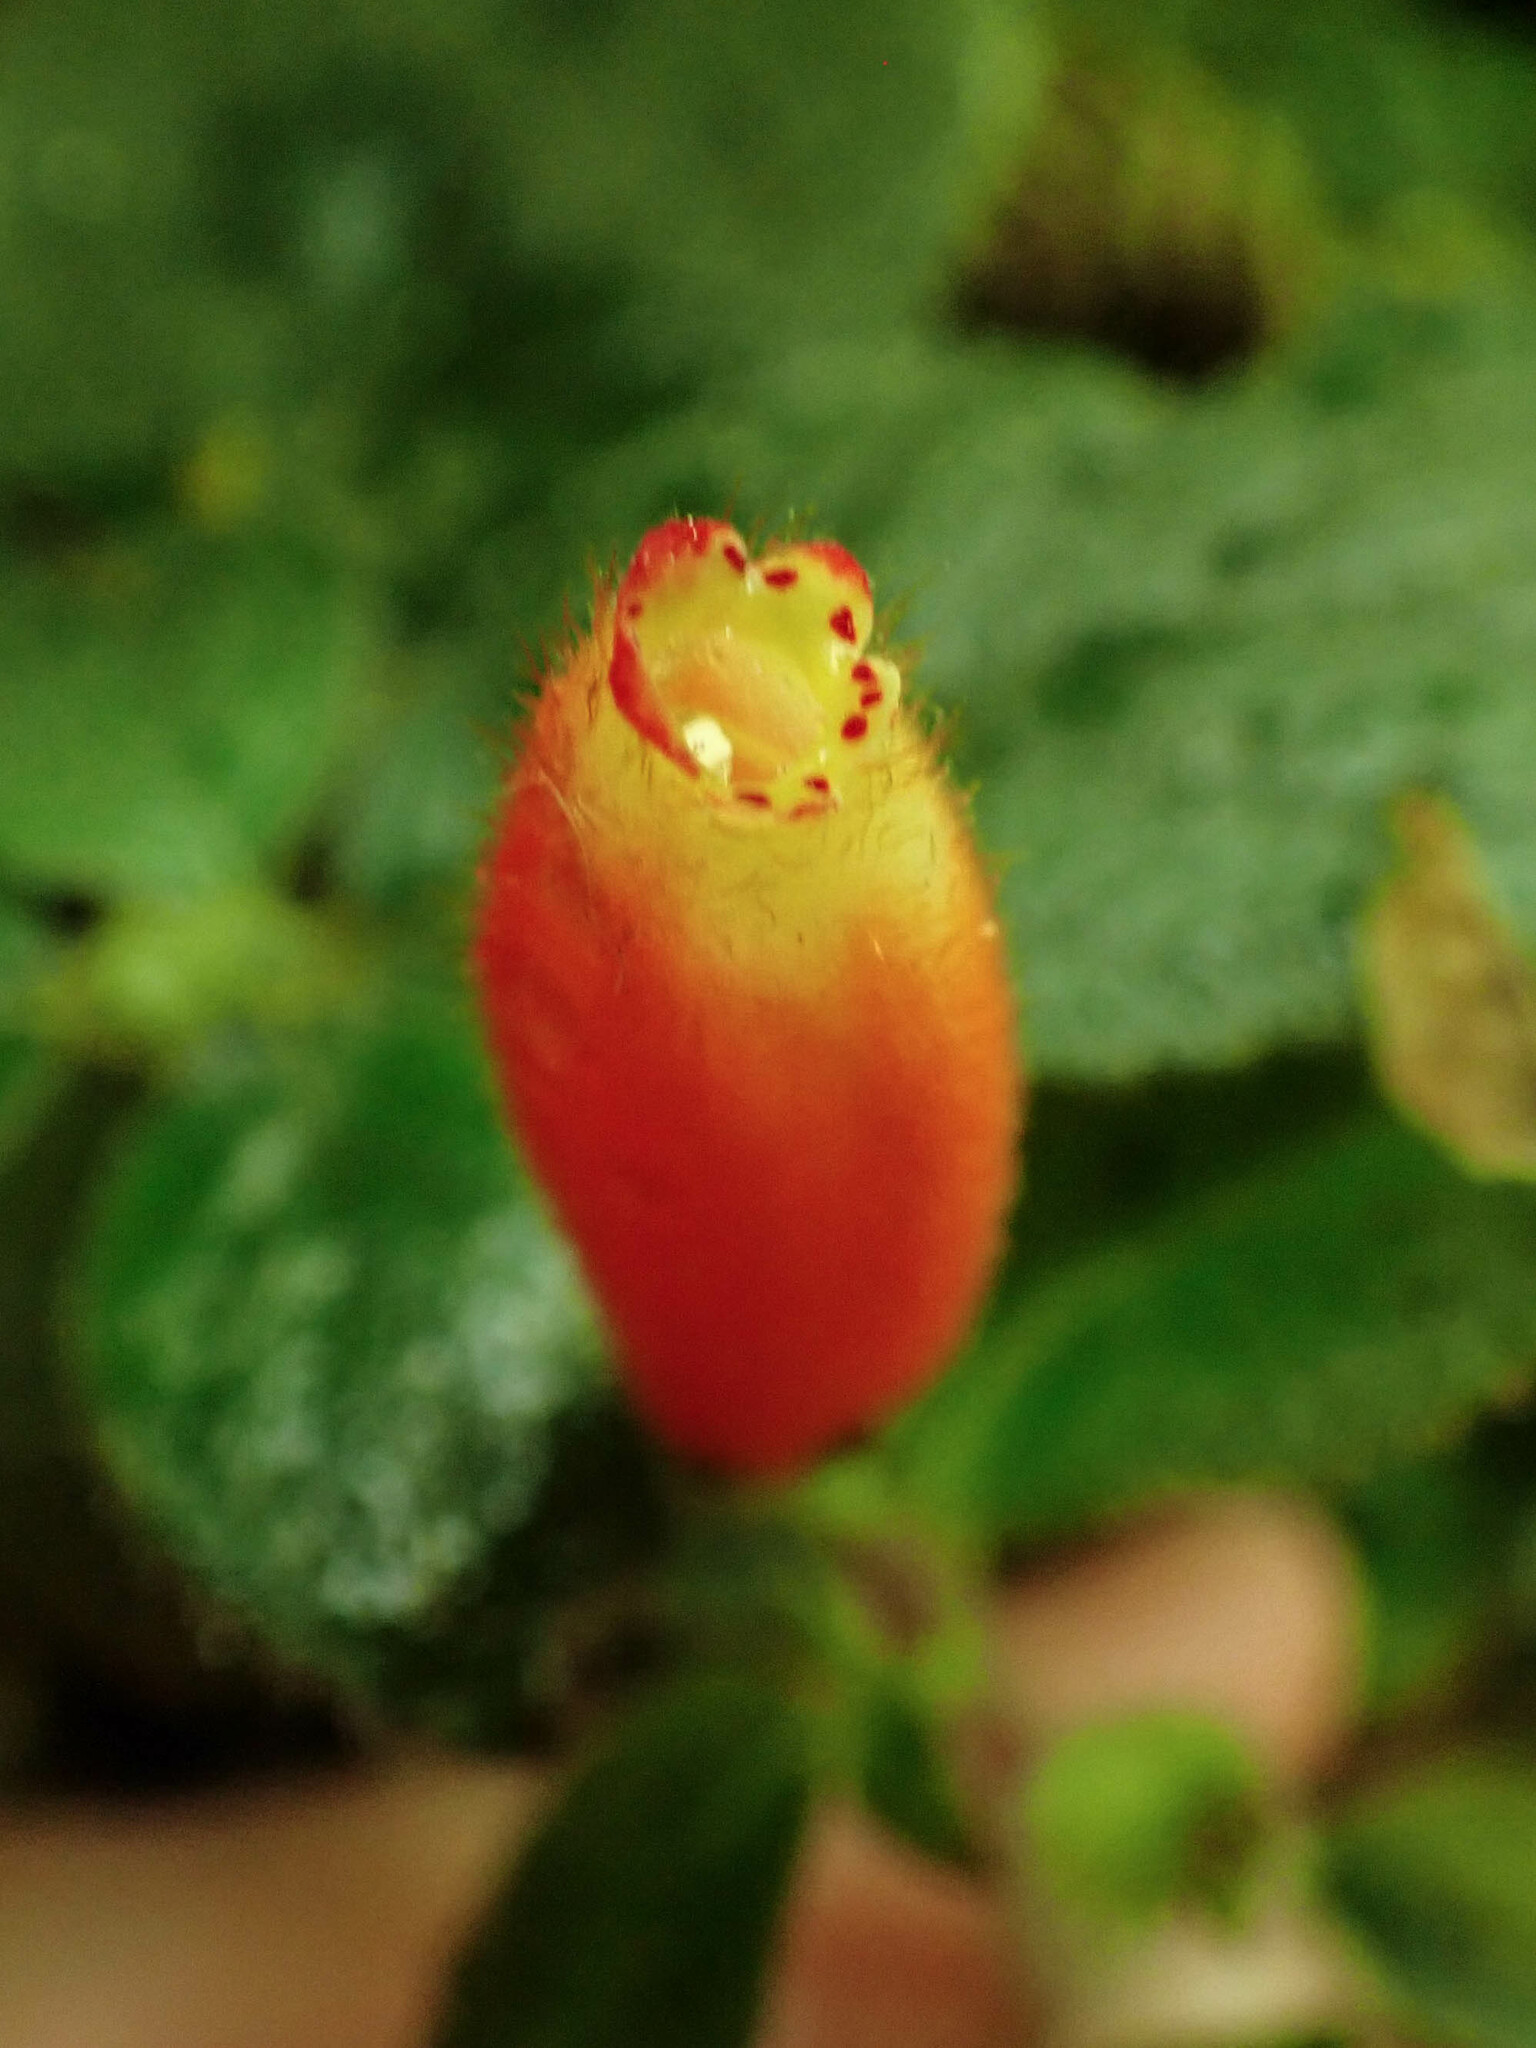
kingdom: Plantae
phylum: Tracheophyta
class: Magnoliopsida
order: Lamiales
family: Gesneriaceae
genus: Kohleria
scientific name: Kohleria tubiflora
